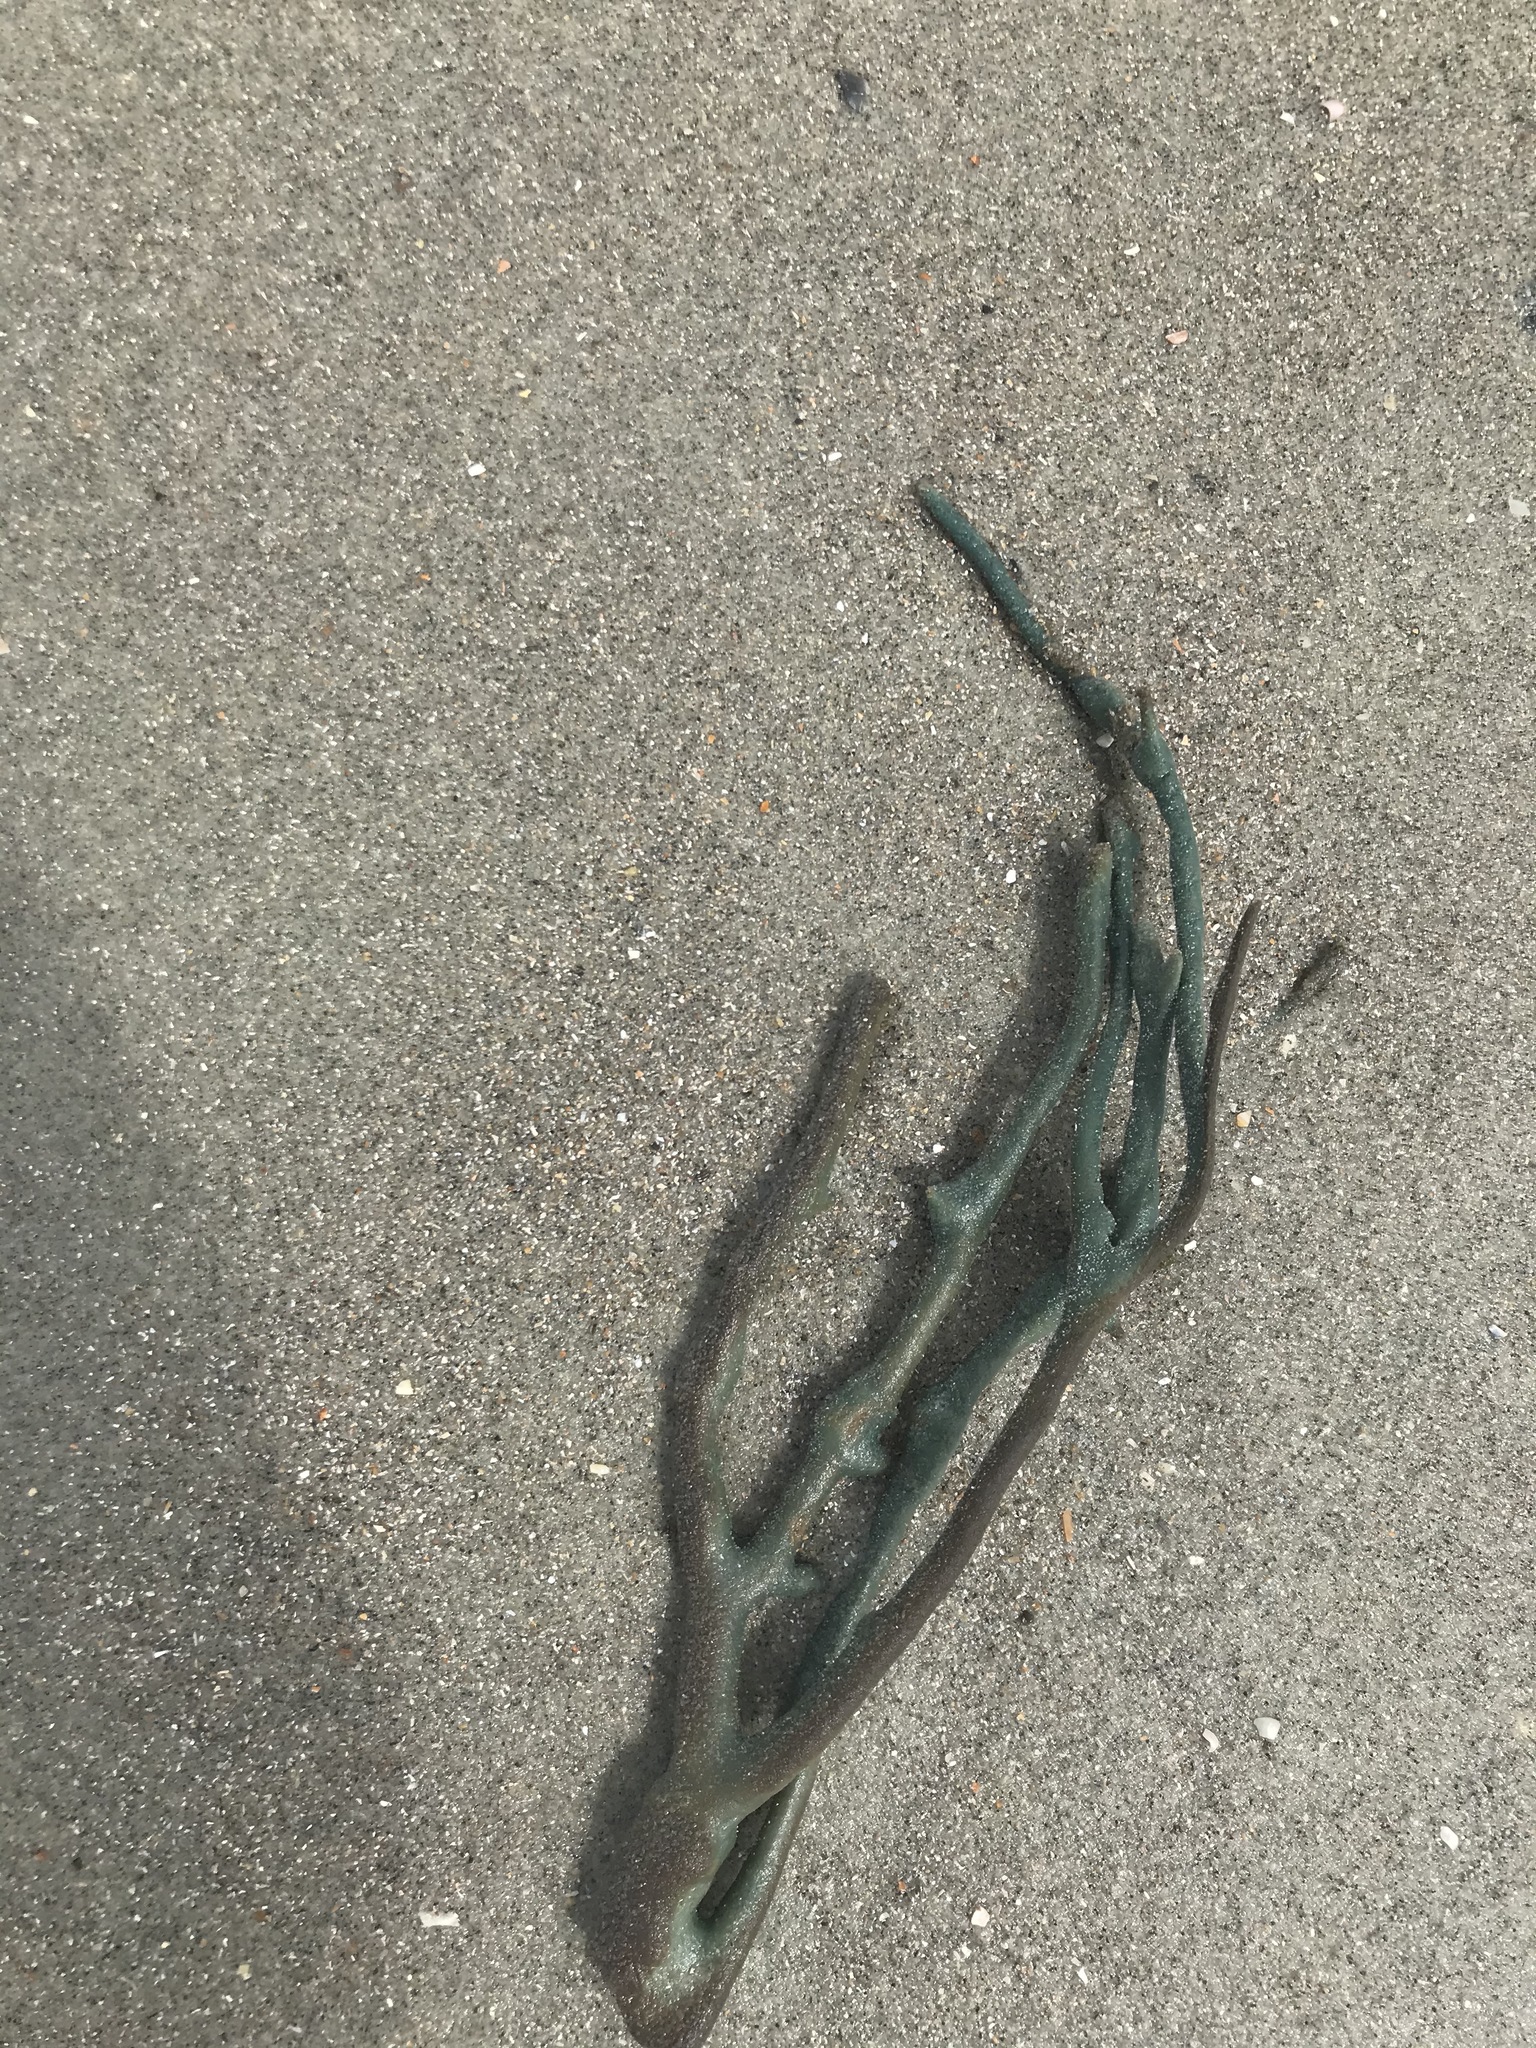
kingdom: Animalia
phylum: Porifera
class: Demospongiae
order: Haplosclerida
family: Chalinidae
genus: Haliclona
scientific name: Haliclona oculata
